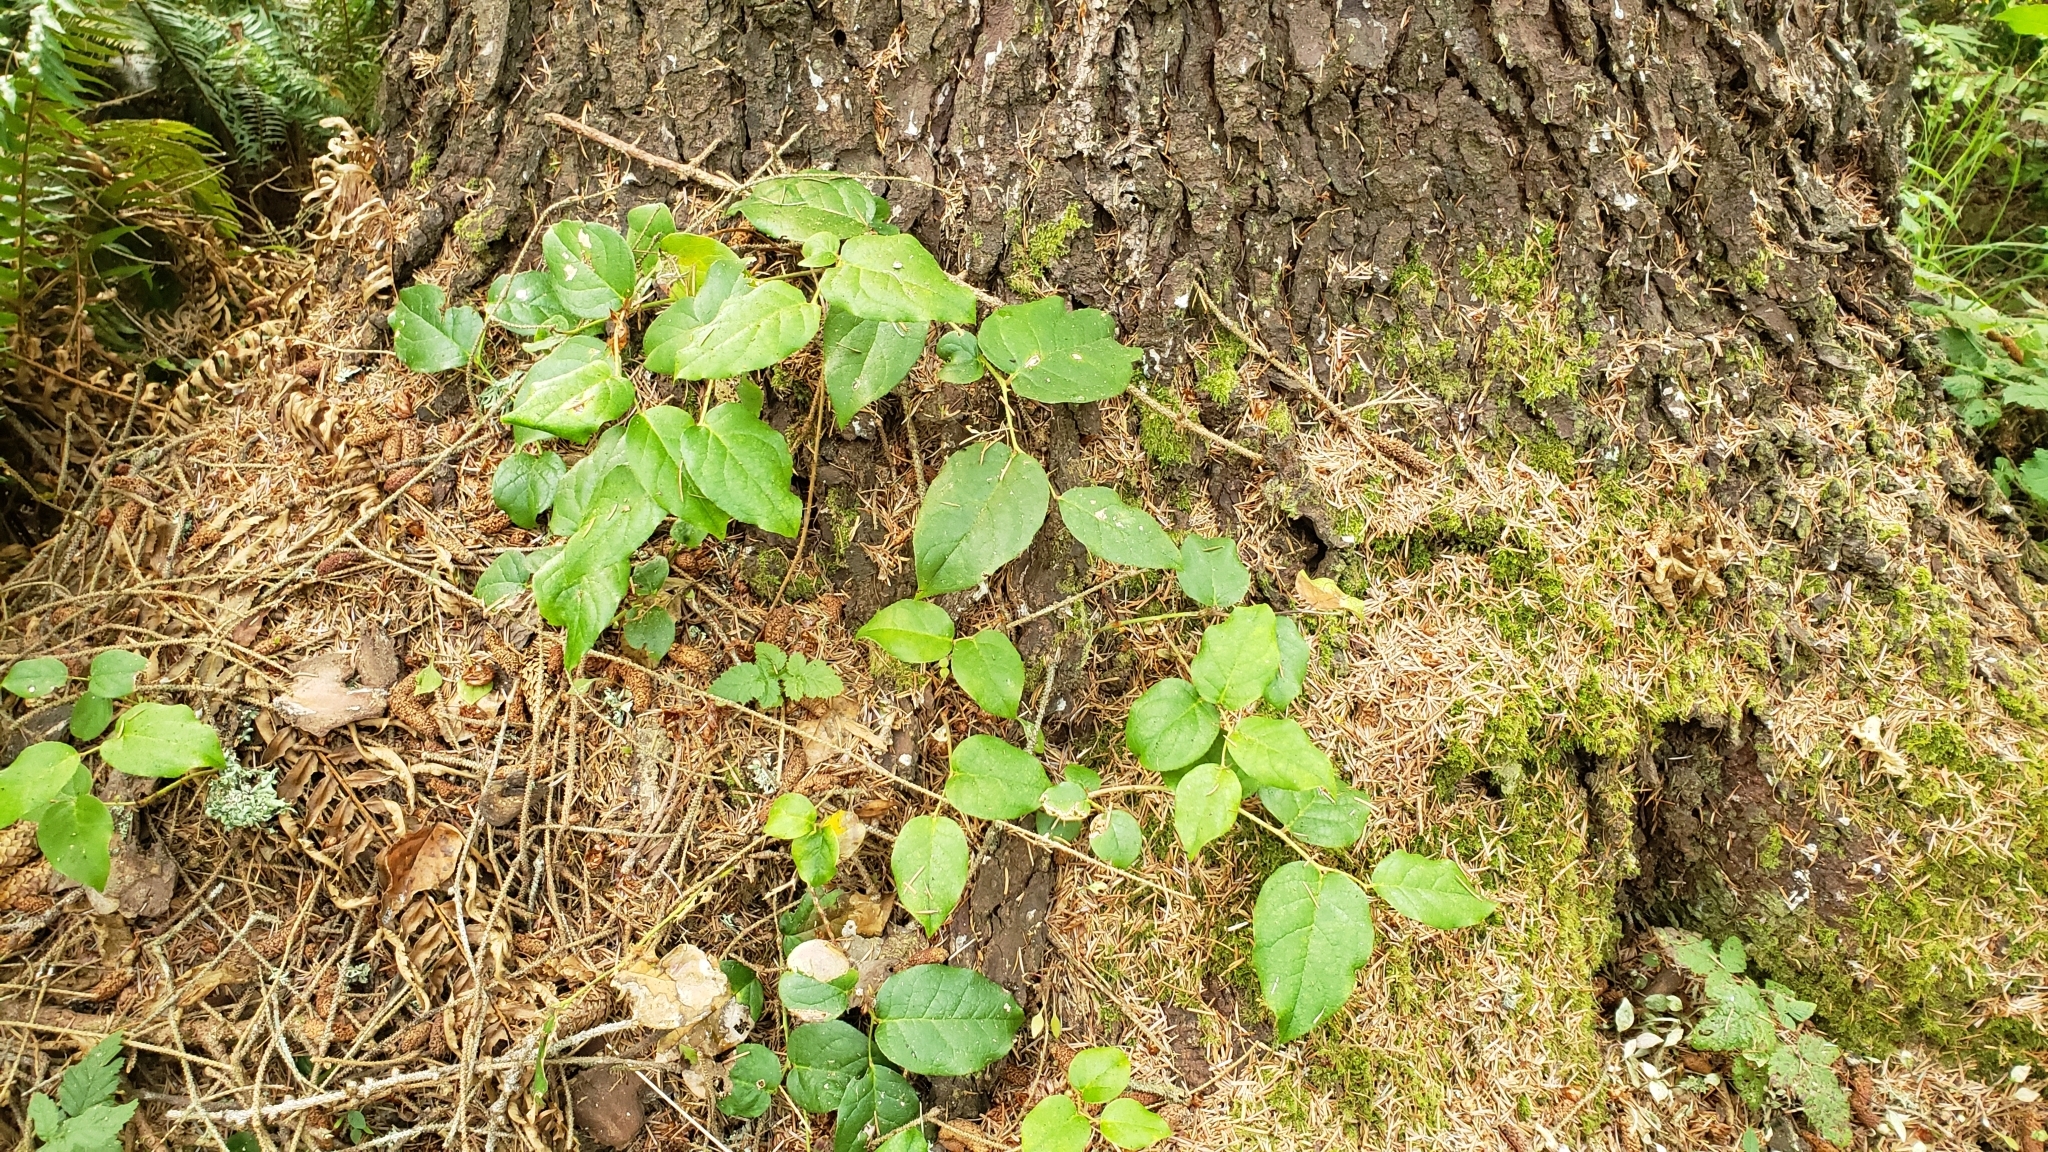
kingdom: Plantae
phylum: Tracheophyta
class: Magnoliopsida
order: Ericales
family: Ericaceae
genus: Gaultheria
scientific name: Gaultheria shallon
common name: Shallon
